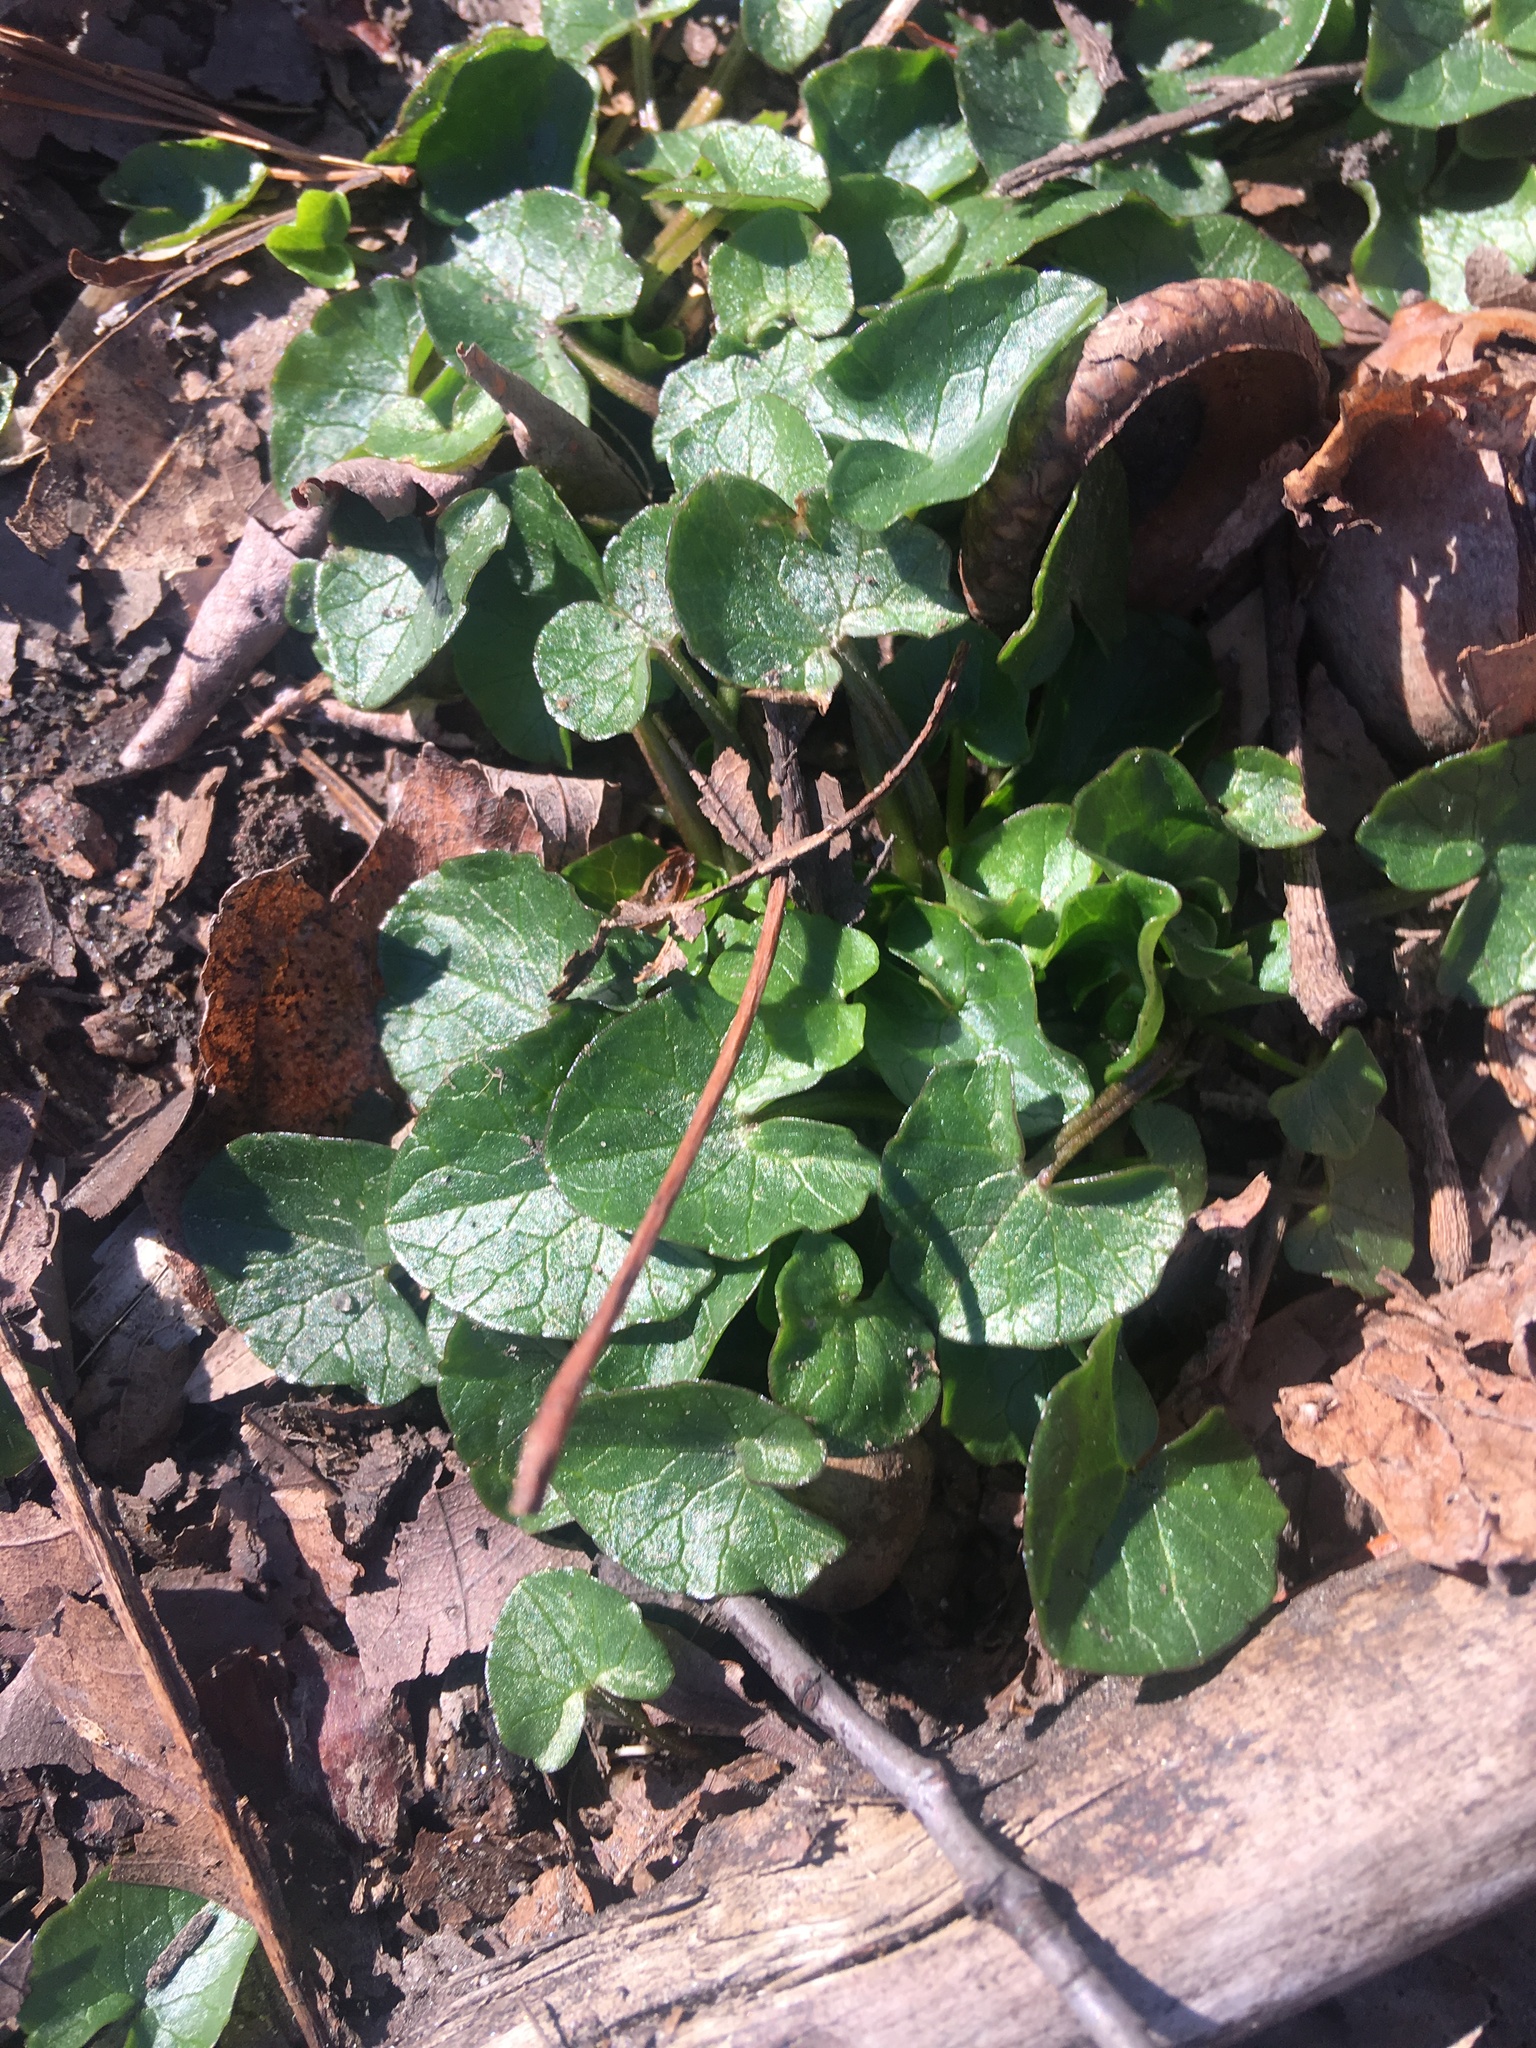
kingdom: Plantae
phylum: Tracheophyta
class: Magnoliopsida
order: Ranunculales
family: Ranunculaceae
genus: Ficaria
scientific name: Ficaria verna
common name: Lesser celandine
